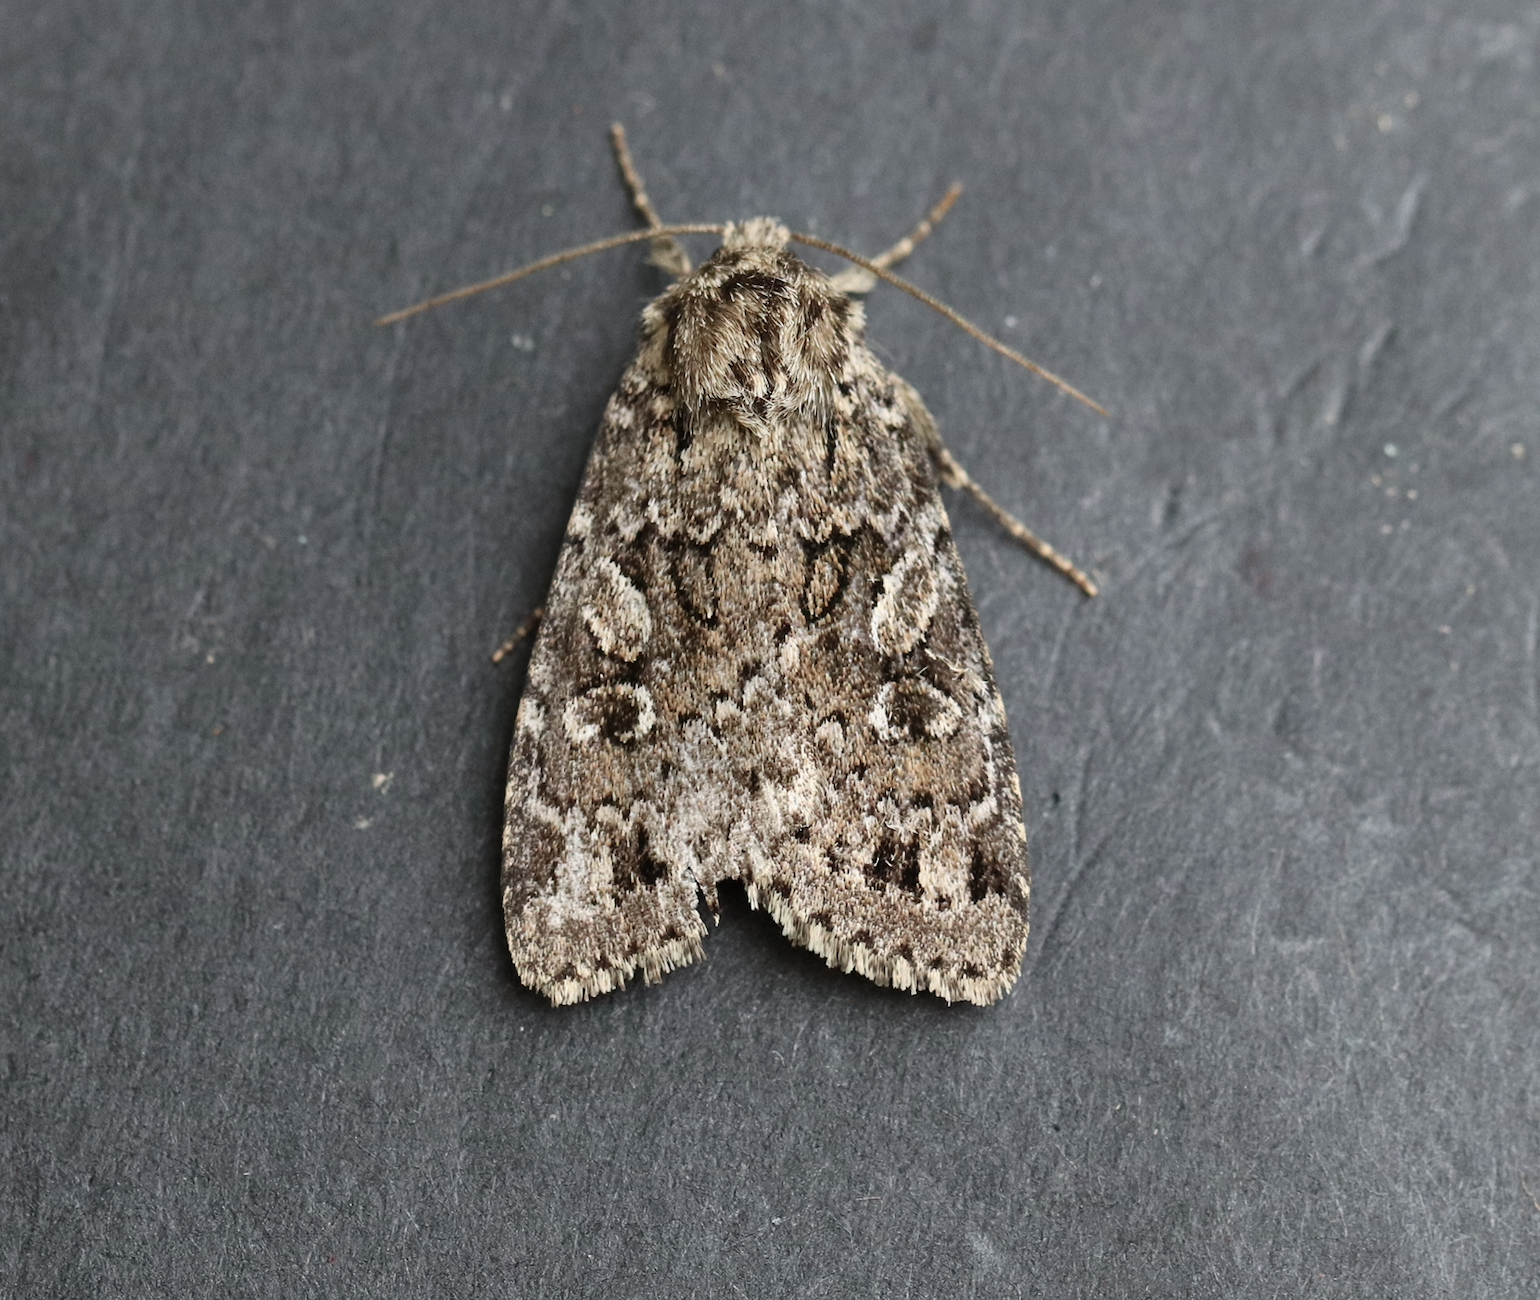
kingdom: Animalia
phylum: Arthropoda
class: Insecta
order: Lepidoptera
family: Noctuidae
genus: Anaplectoides
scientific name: Anaplectoides pressus
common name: Dappled dart
